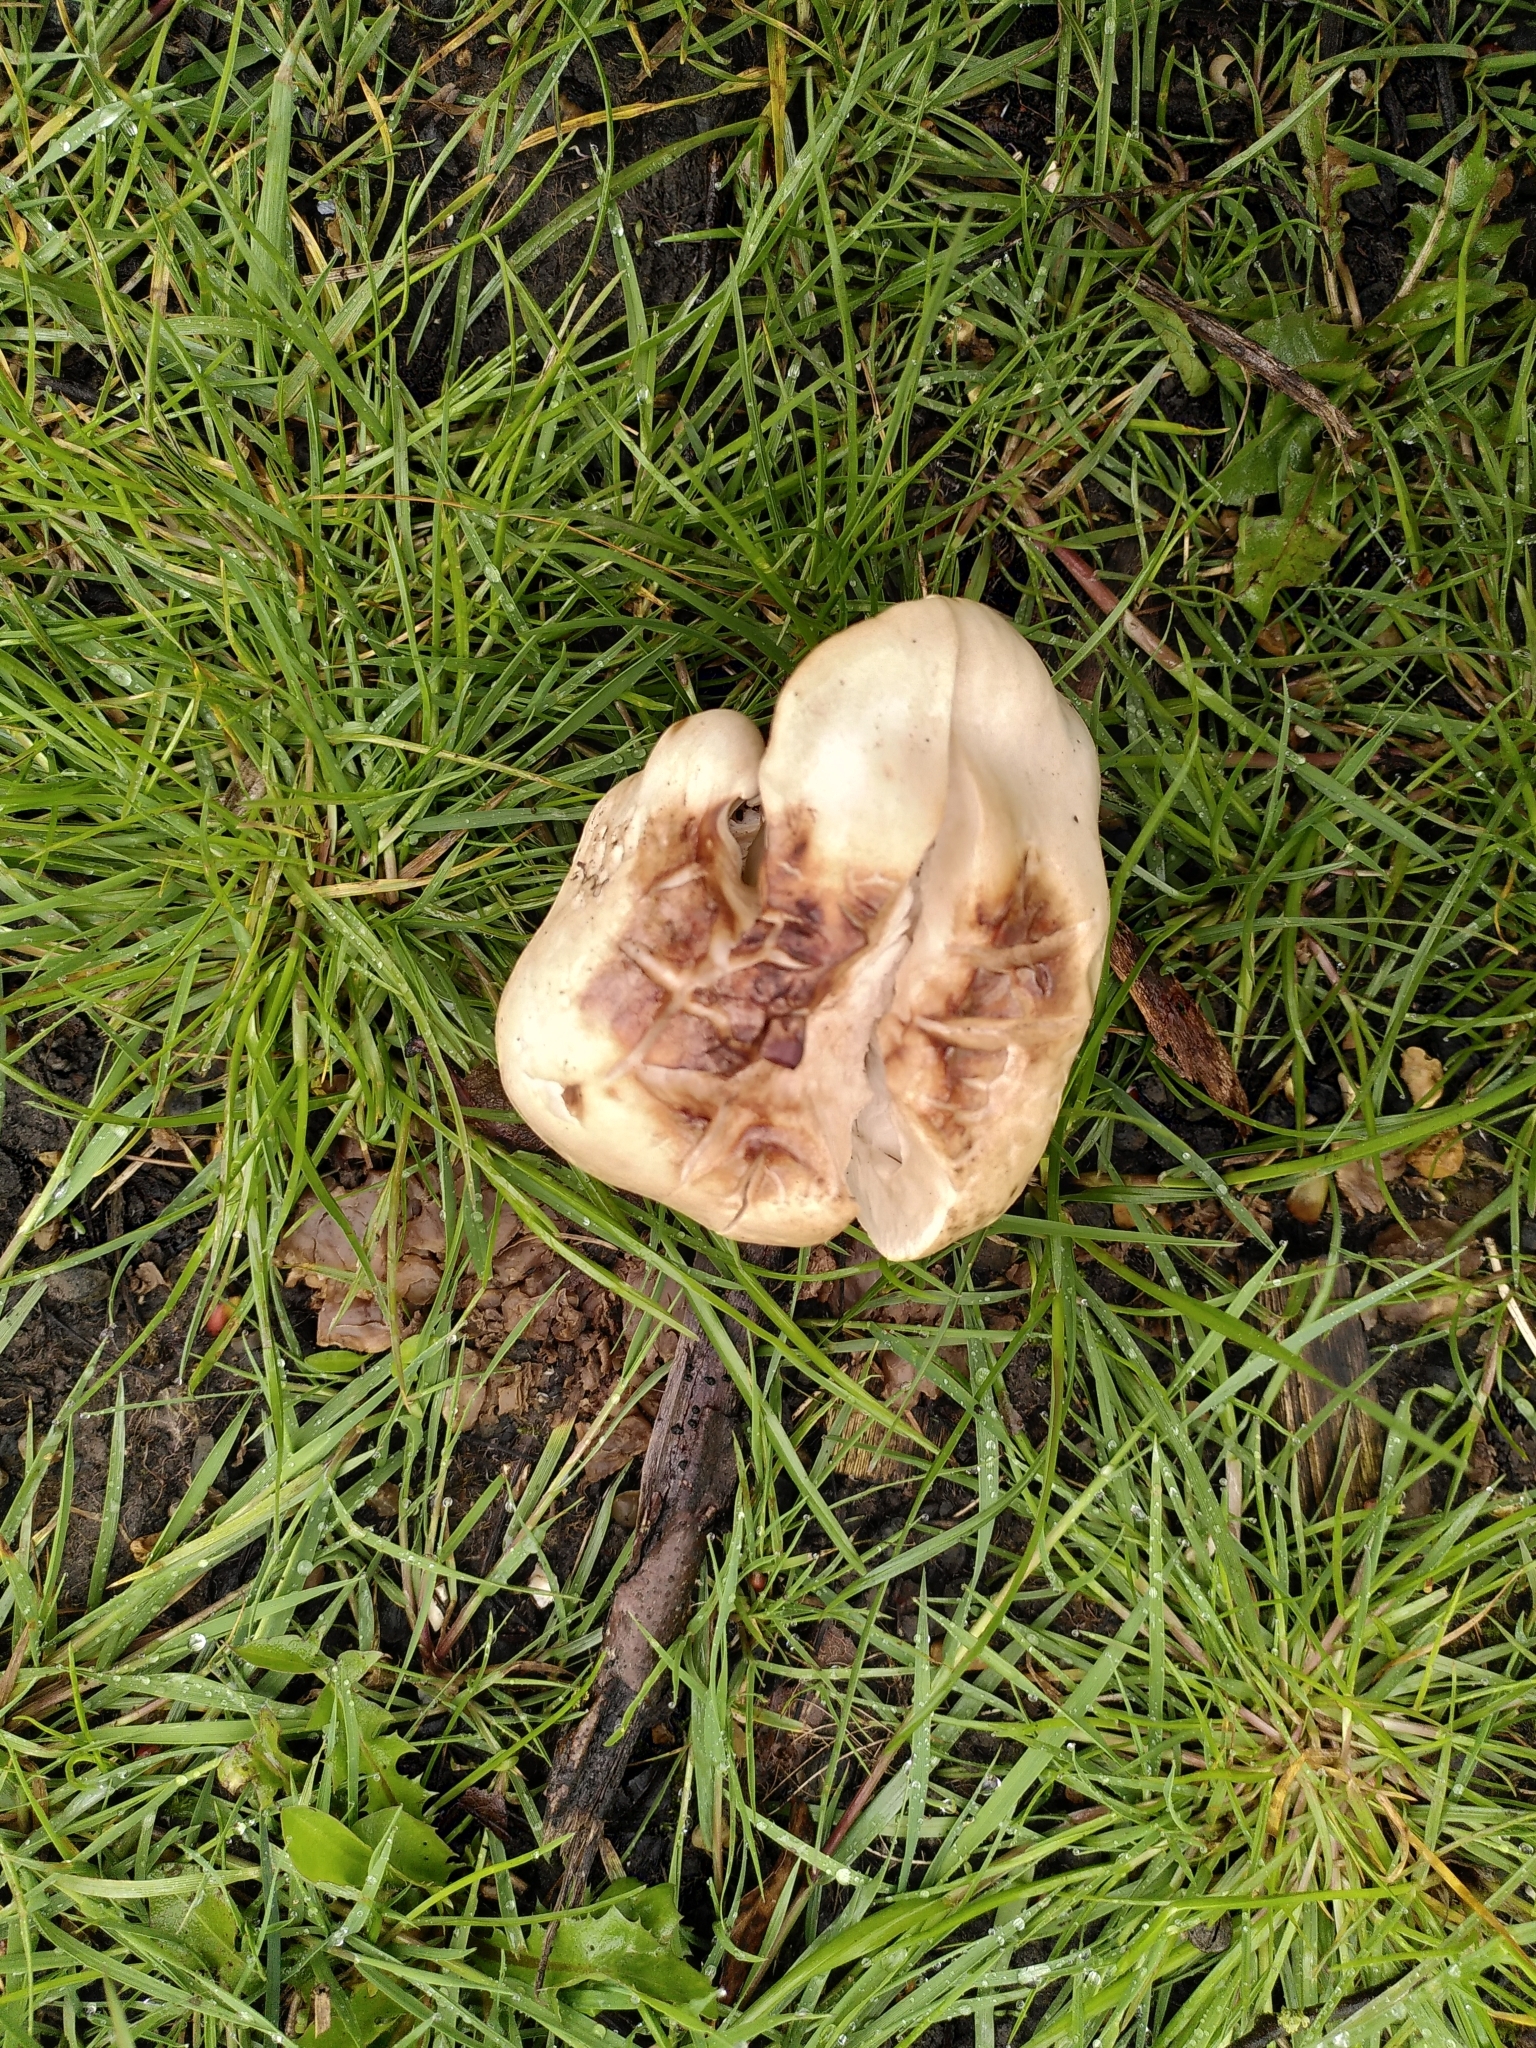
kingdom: Fungi
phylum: Basidiomycota
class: Agaricomycetes
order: Agaricales
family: Lyophyllaceae
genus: Calocybe
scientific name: Calocybe gambosa
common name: St. george's mushroom
